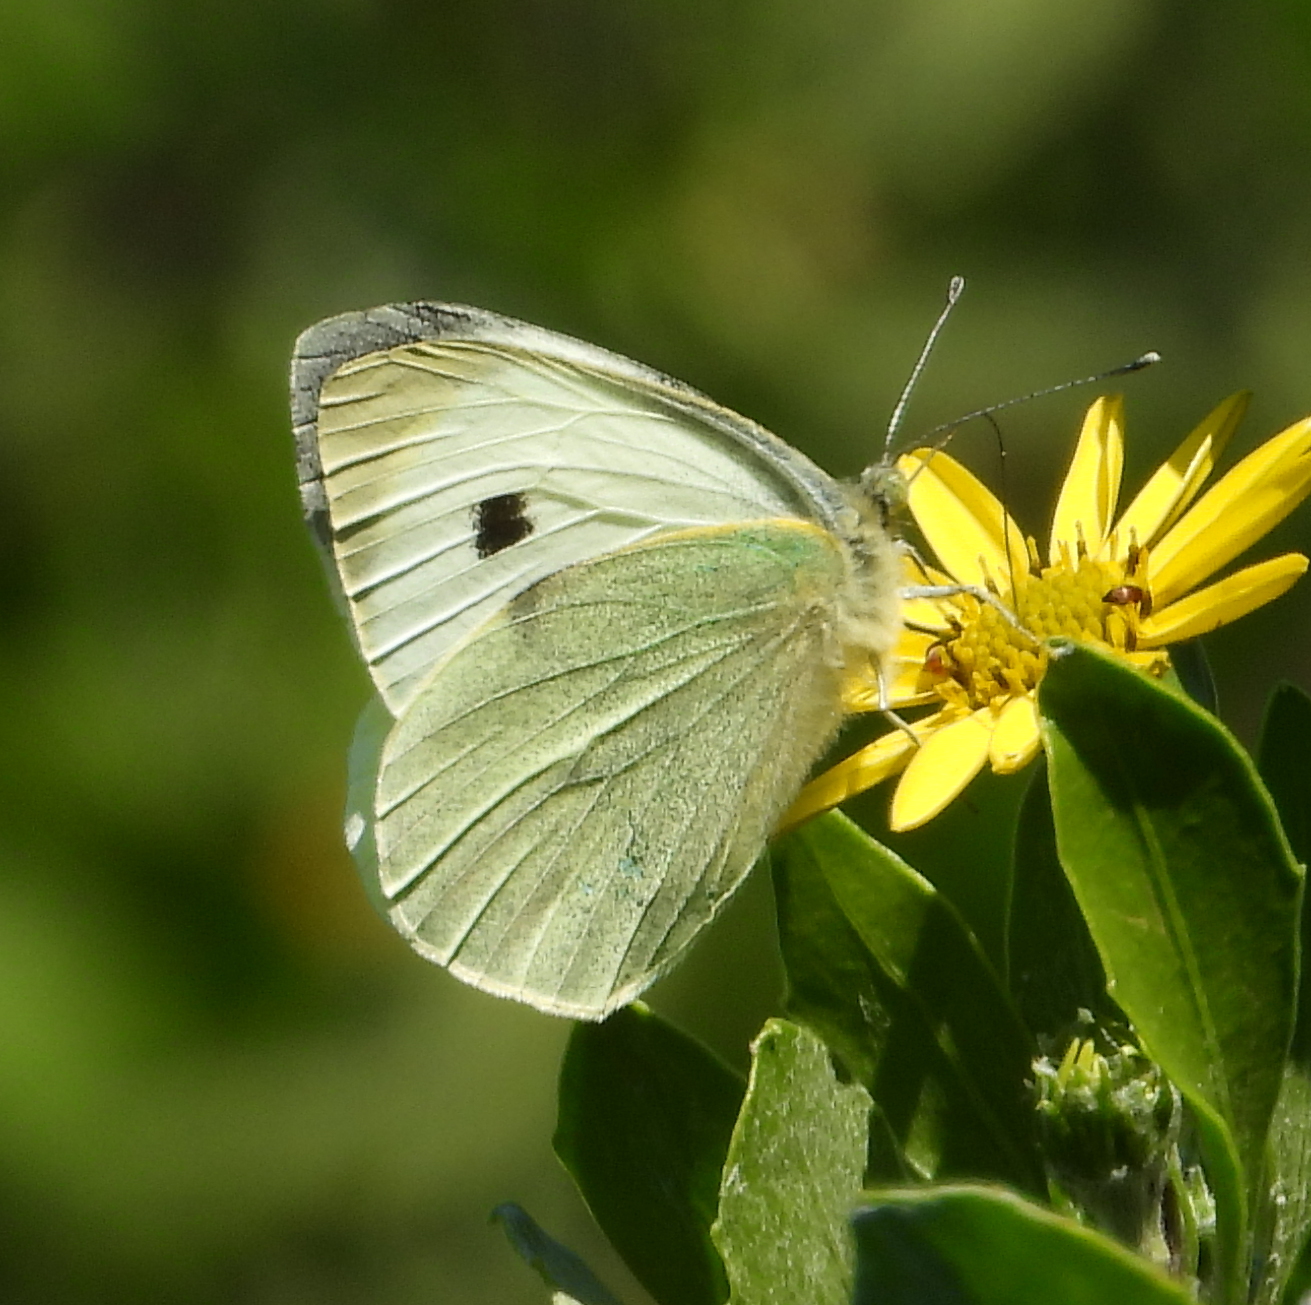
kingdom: Animalia
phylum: Arthropoda
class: Insecta
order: Lepidoptera
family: Pieridae
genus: Pieris
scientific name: Pieris brassicae
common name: Large white
